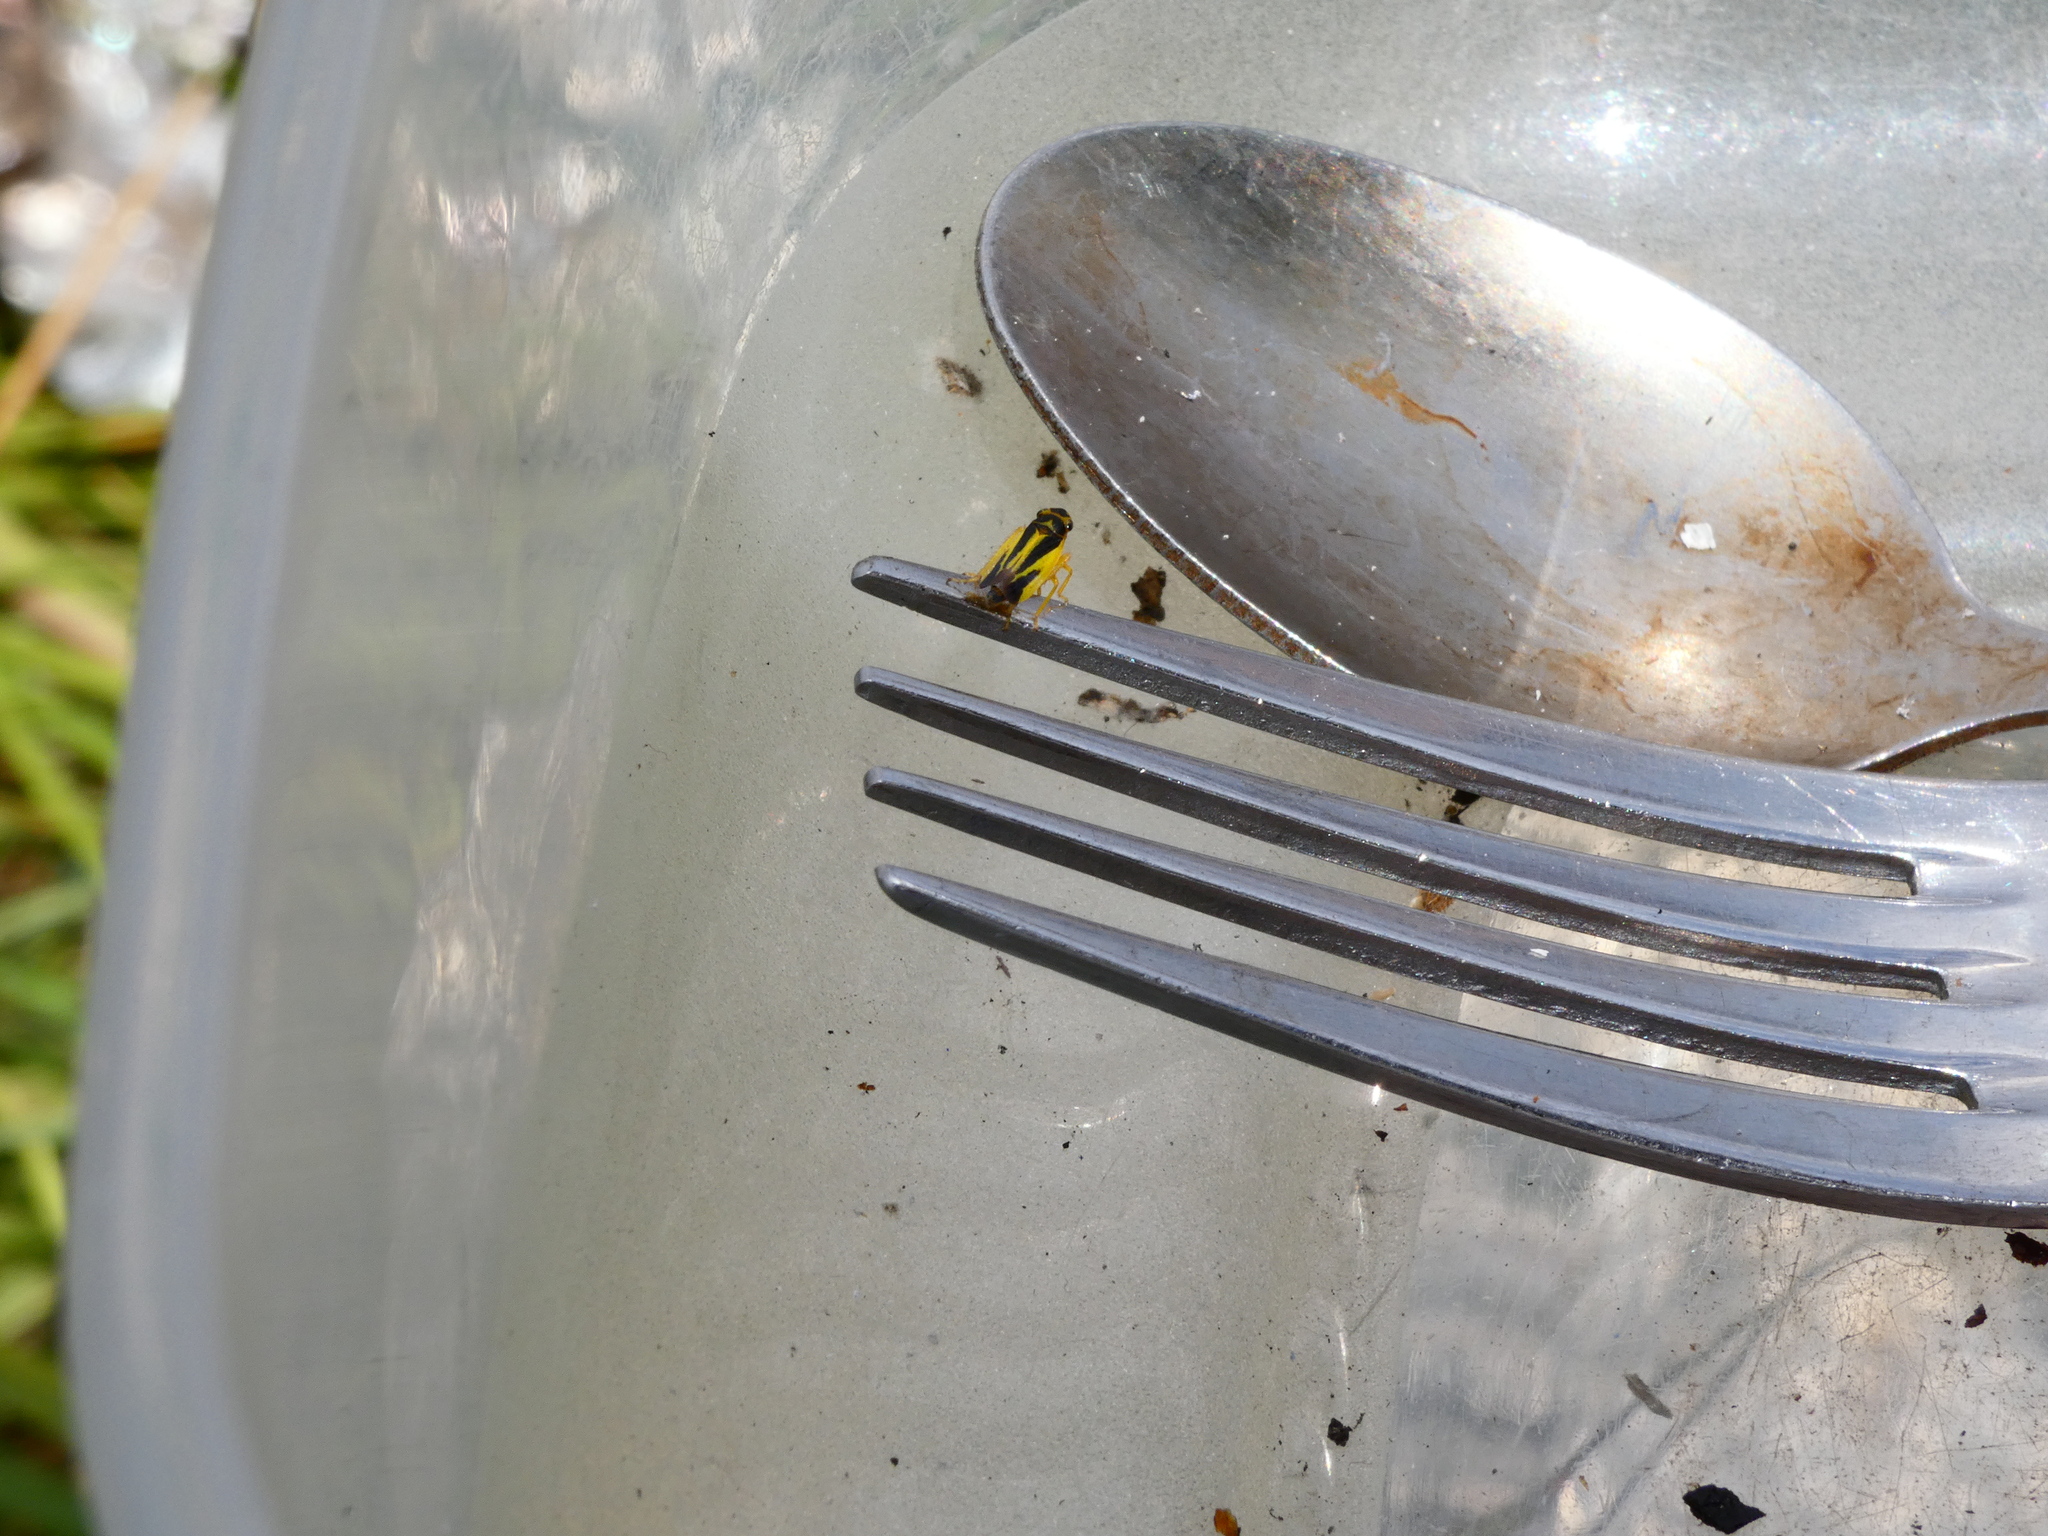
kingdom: Animalia
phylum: Arthropoda
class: Insecta
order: Hemiptera
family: Cicadellidae
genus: Evacanthus
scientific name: Evacanthus interruptus
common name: Leafhopper
